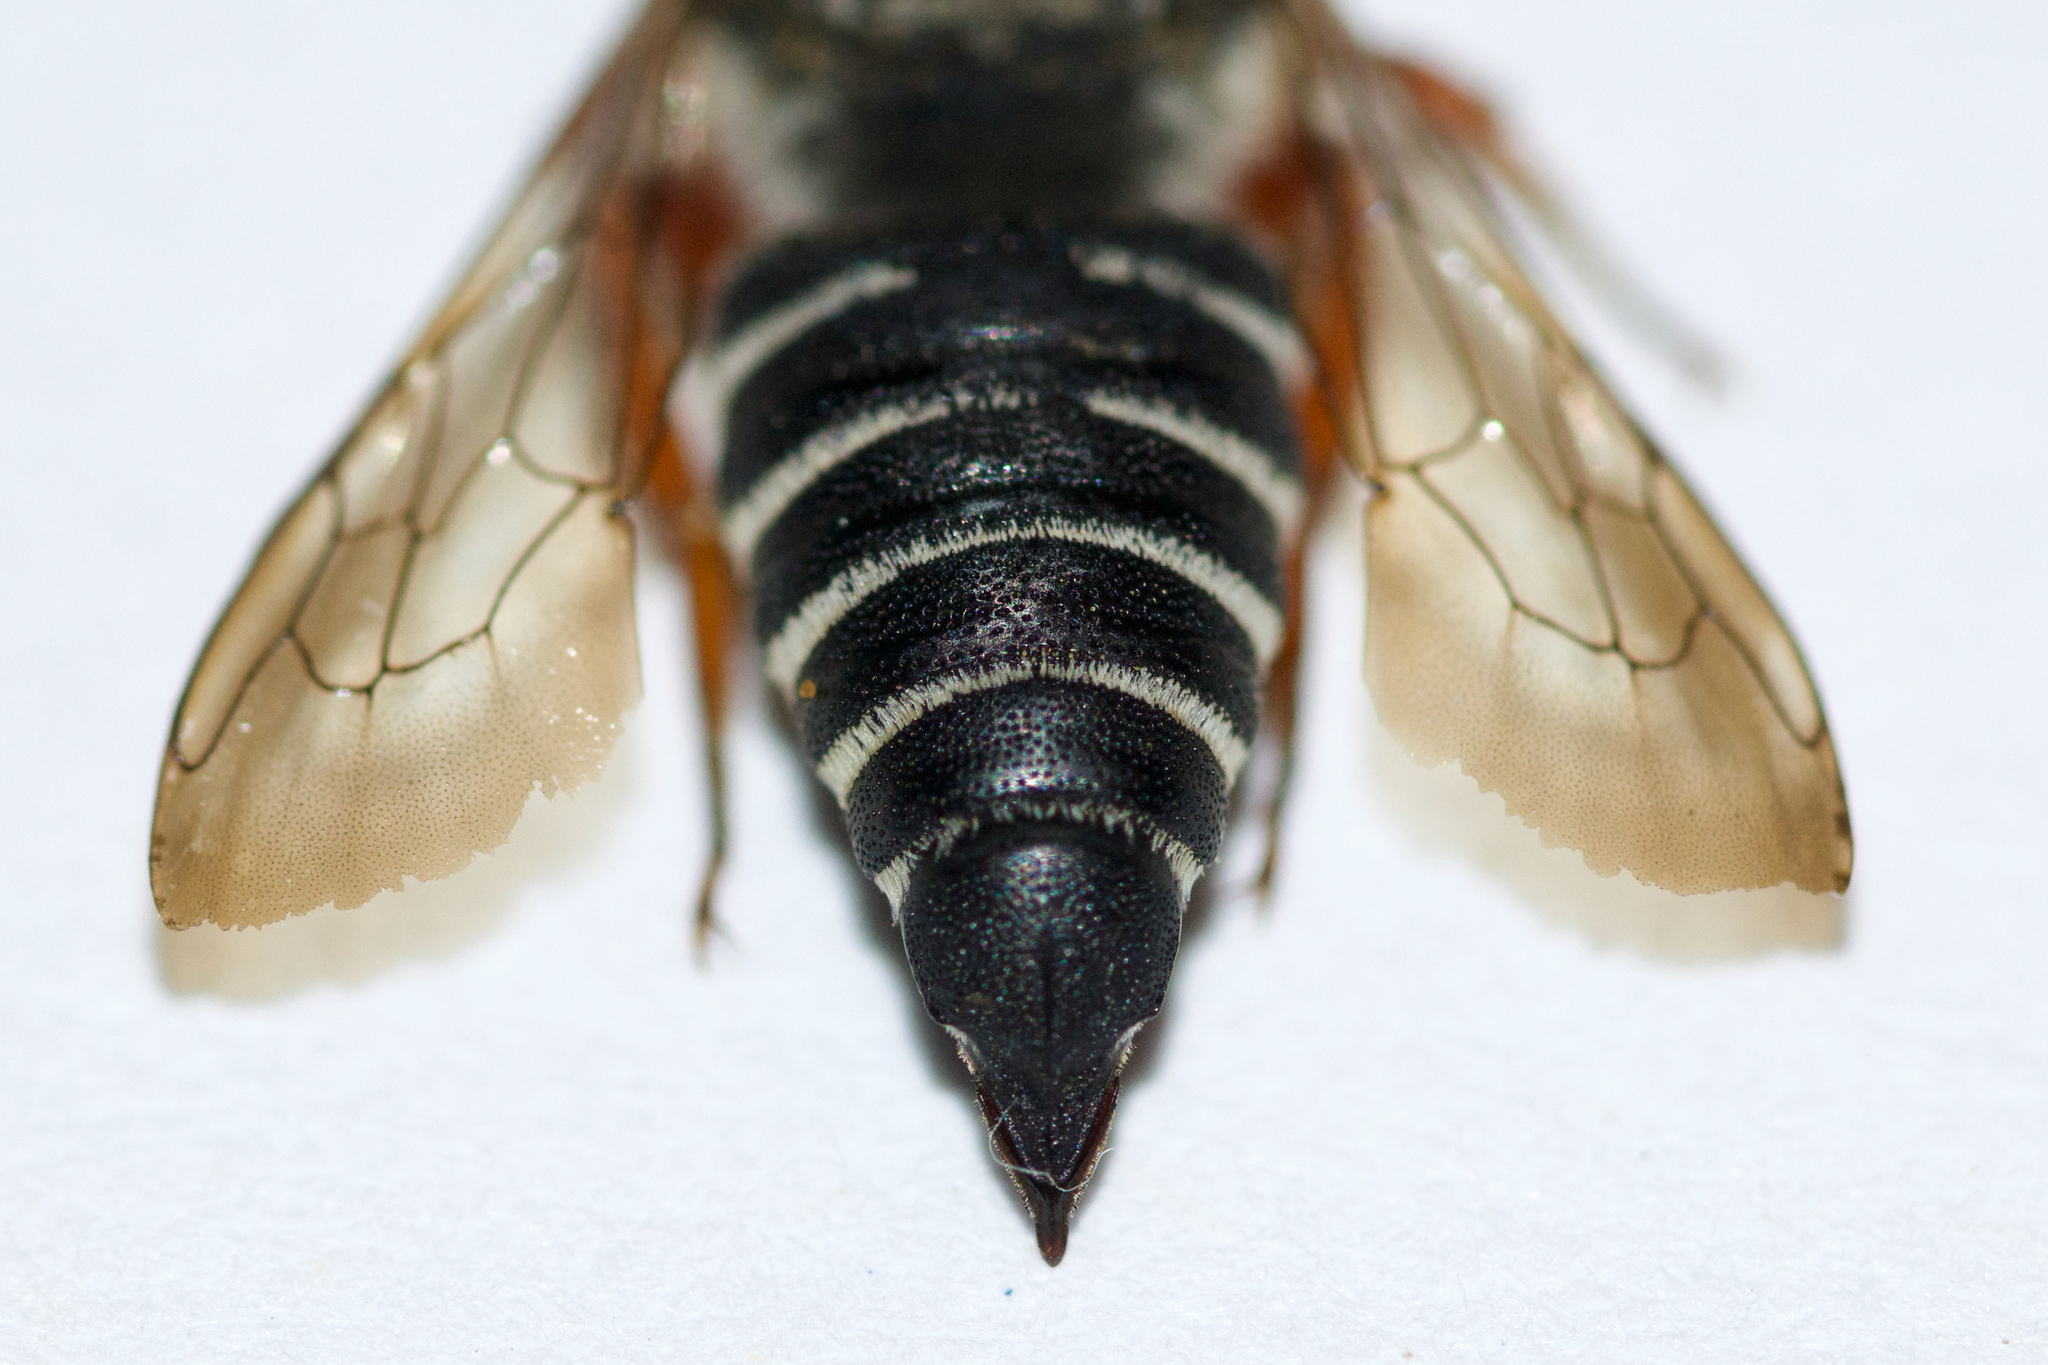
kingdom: Animalia
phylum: Arthropoda
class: Insecta
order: Hymenoptera
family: Megachilidae
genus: Coelioxys
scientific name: Coelioxys octodentatus
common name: Eight-toothed cuckoo leaf-cutter bee
